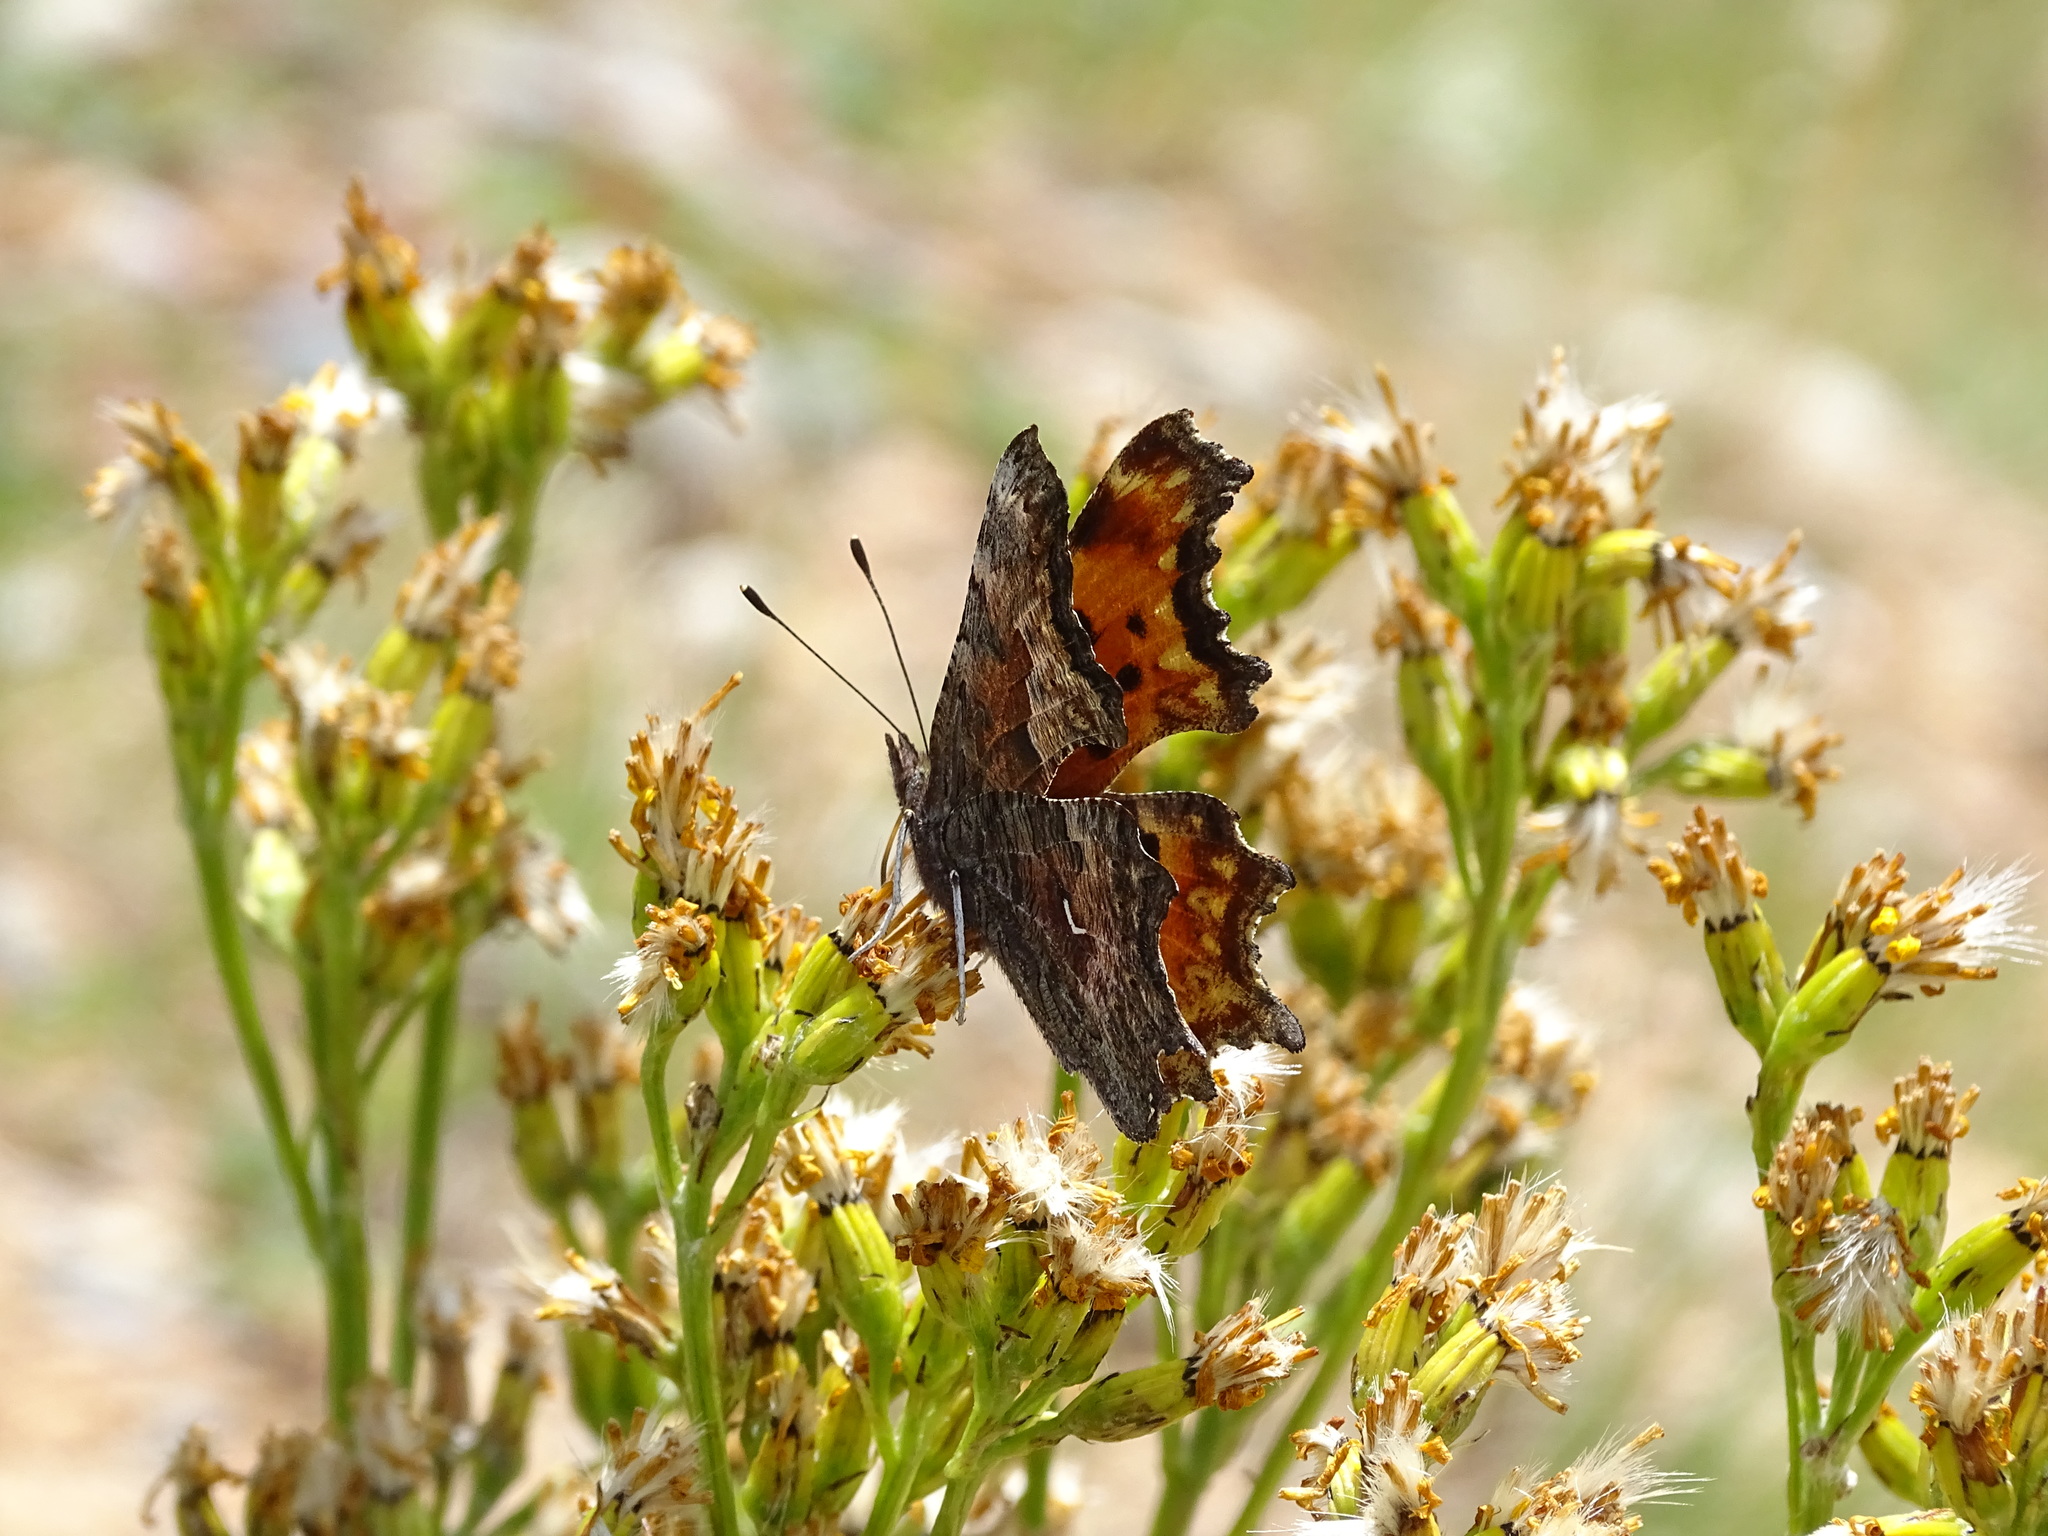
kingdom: Animalia
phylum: Arthropoda
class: Insecta
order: Lepidoptera
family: Nymphalidae
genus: Polygonia
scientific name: Polygonia gracilis
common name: Hoary comma
